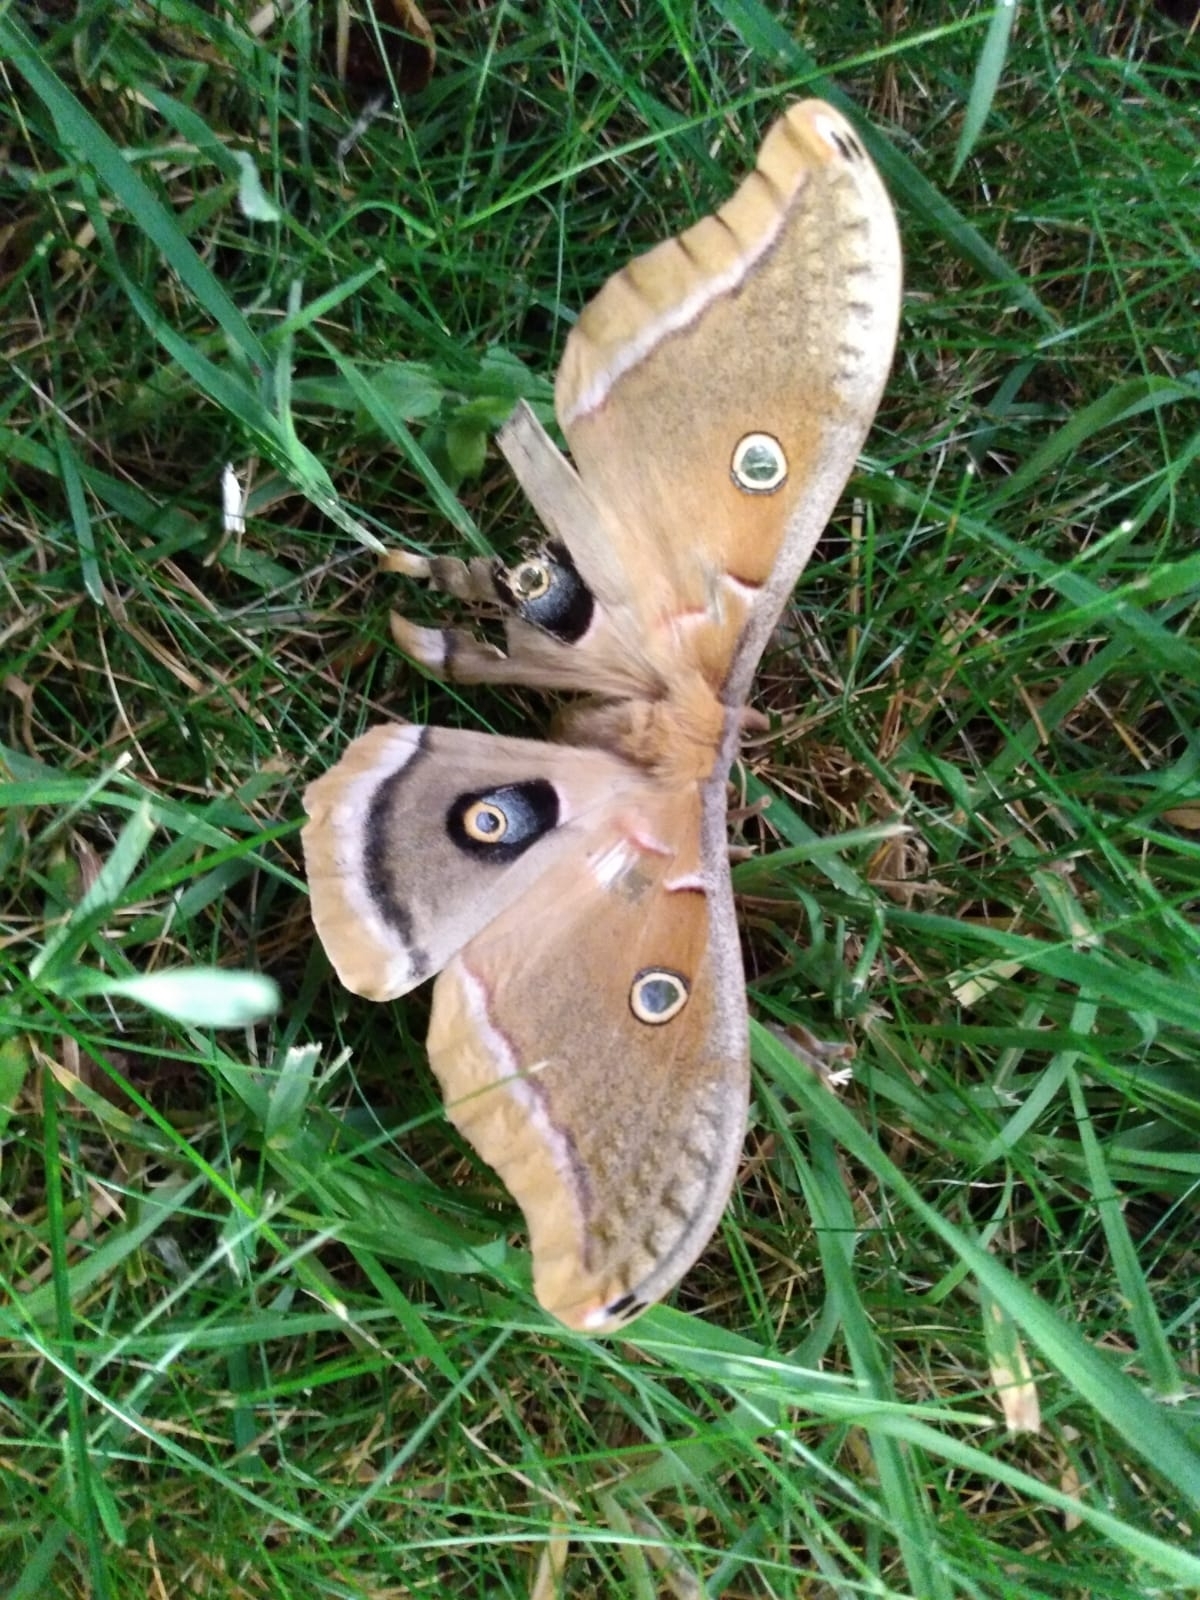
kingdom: Animalia
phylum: Arthropoda
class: Insecta
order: Lepidoptera
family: Saturniidae
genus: Antheraea
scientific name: Antheraea polyphemus
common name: Polyphemus moth
